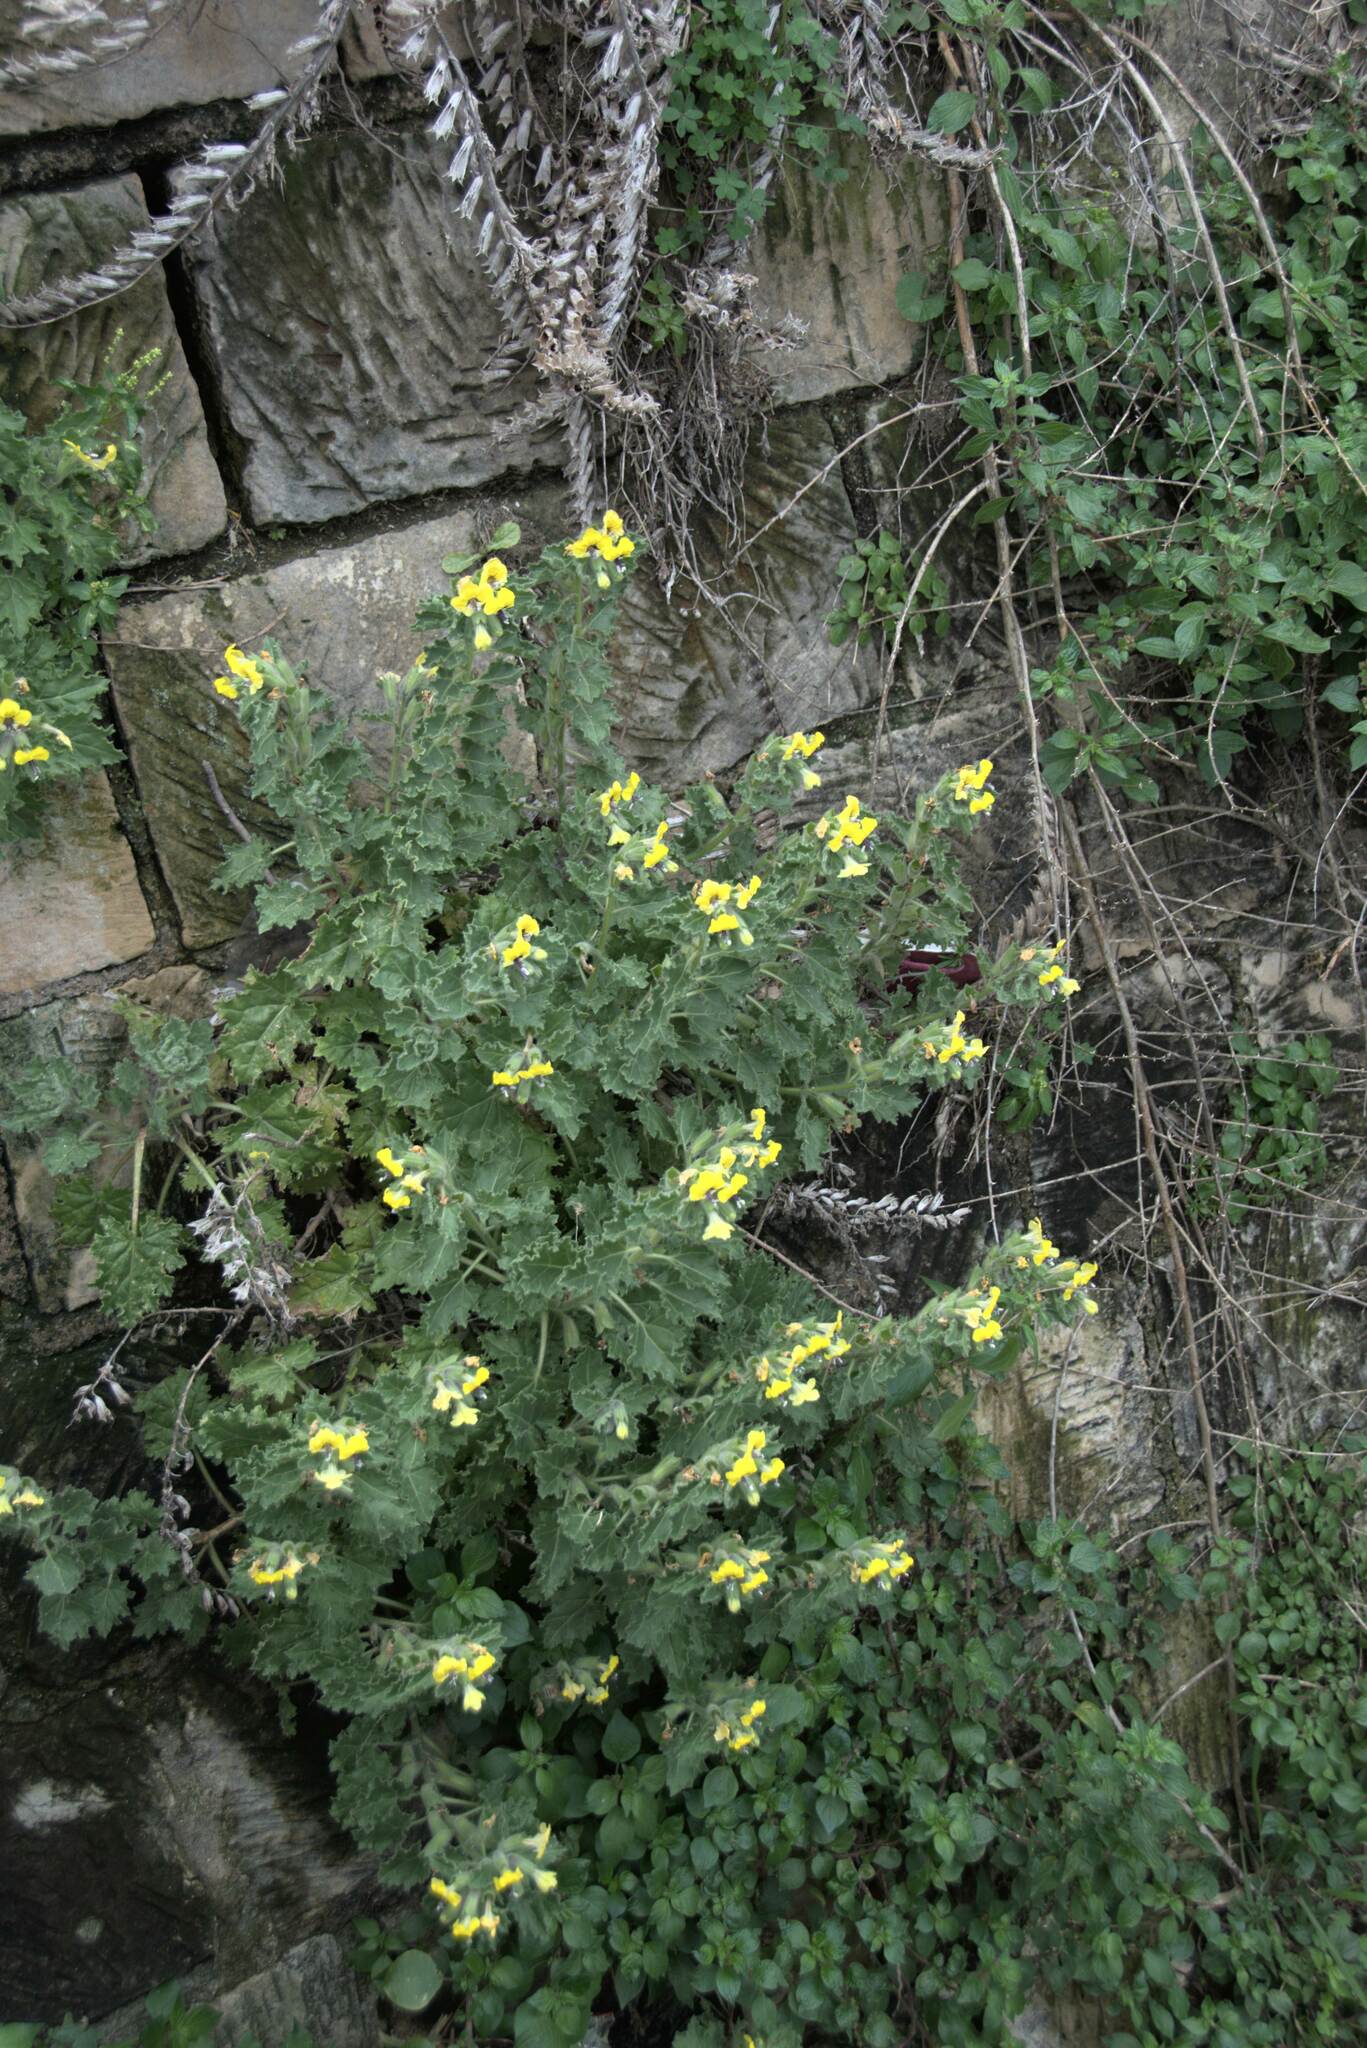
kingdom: Plantae
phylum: Tracheophyta
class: Magnoliopsida
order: Solanales
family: Solanaceae
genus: Hyoscyamus
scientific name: Hyoscyamus aureus
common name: Golden henbane
